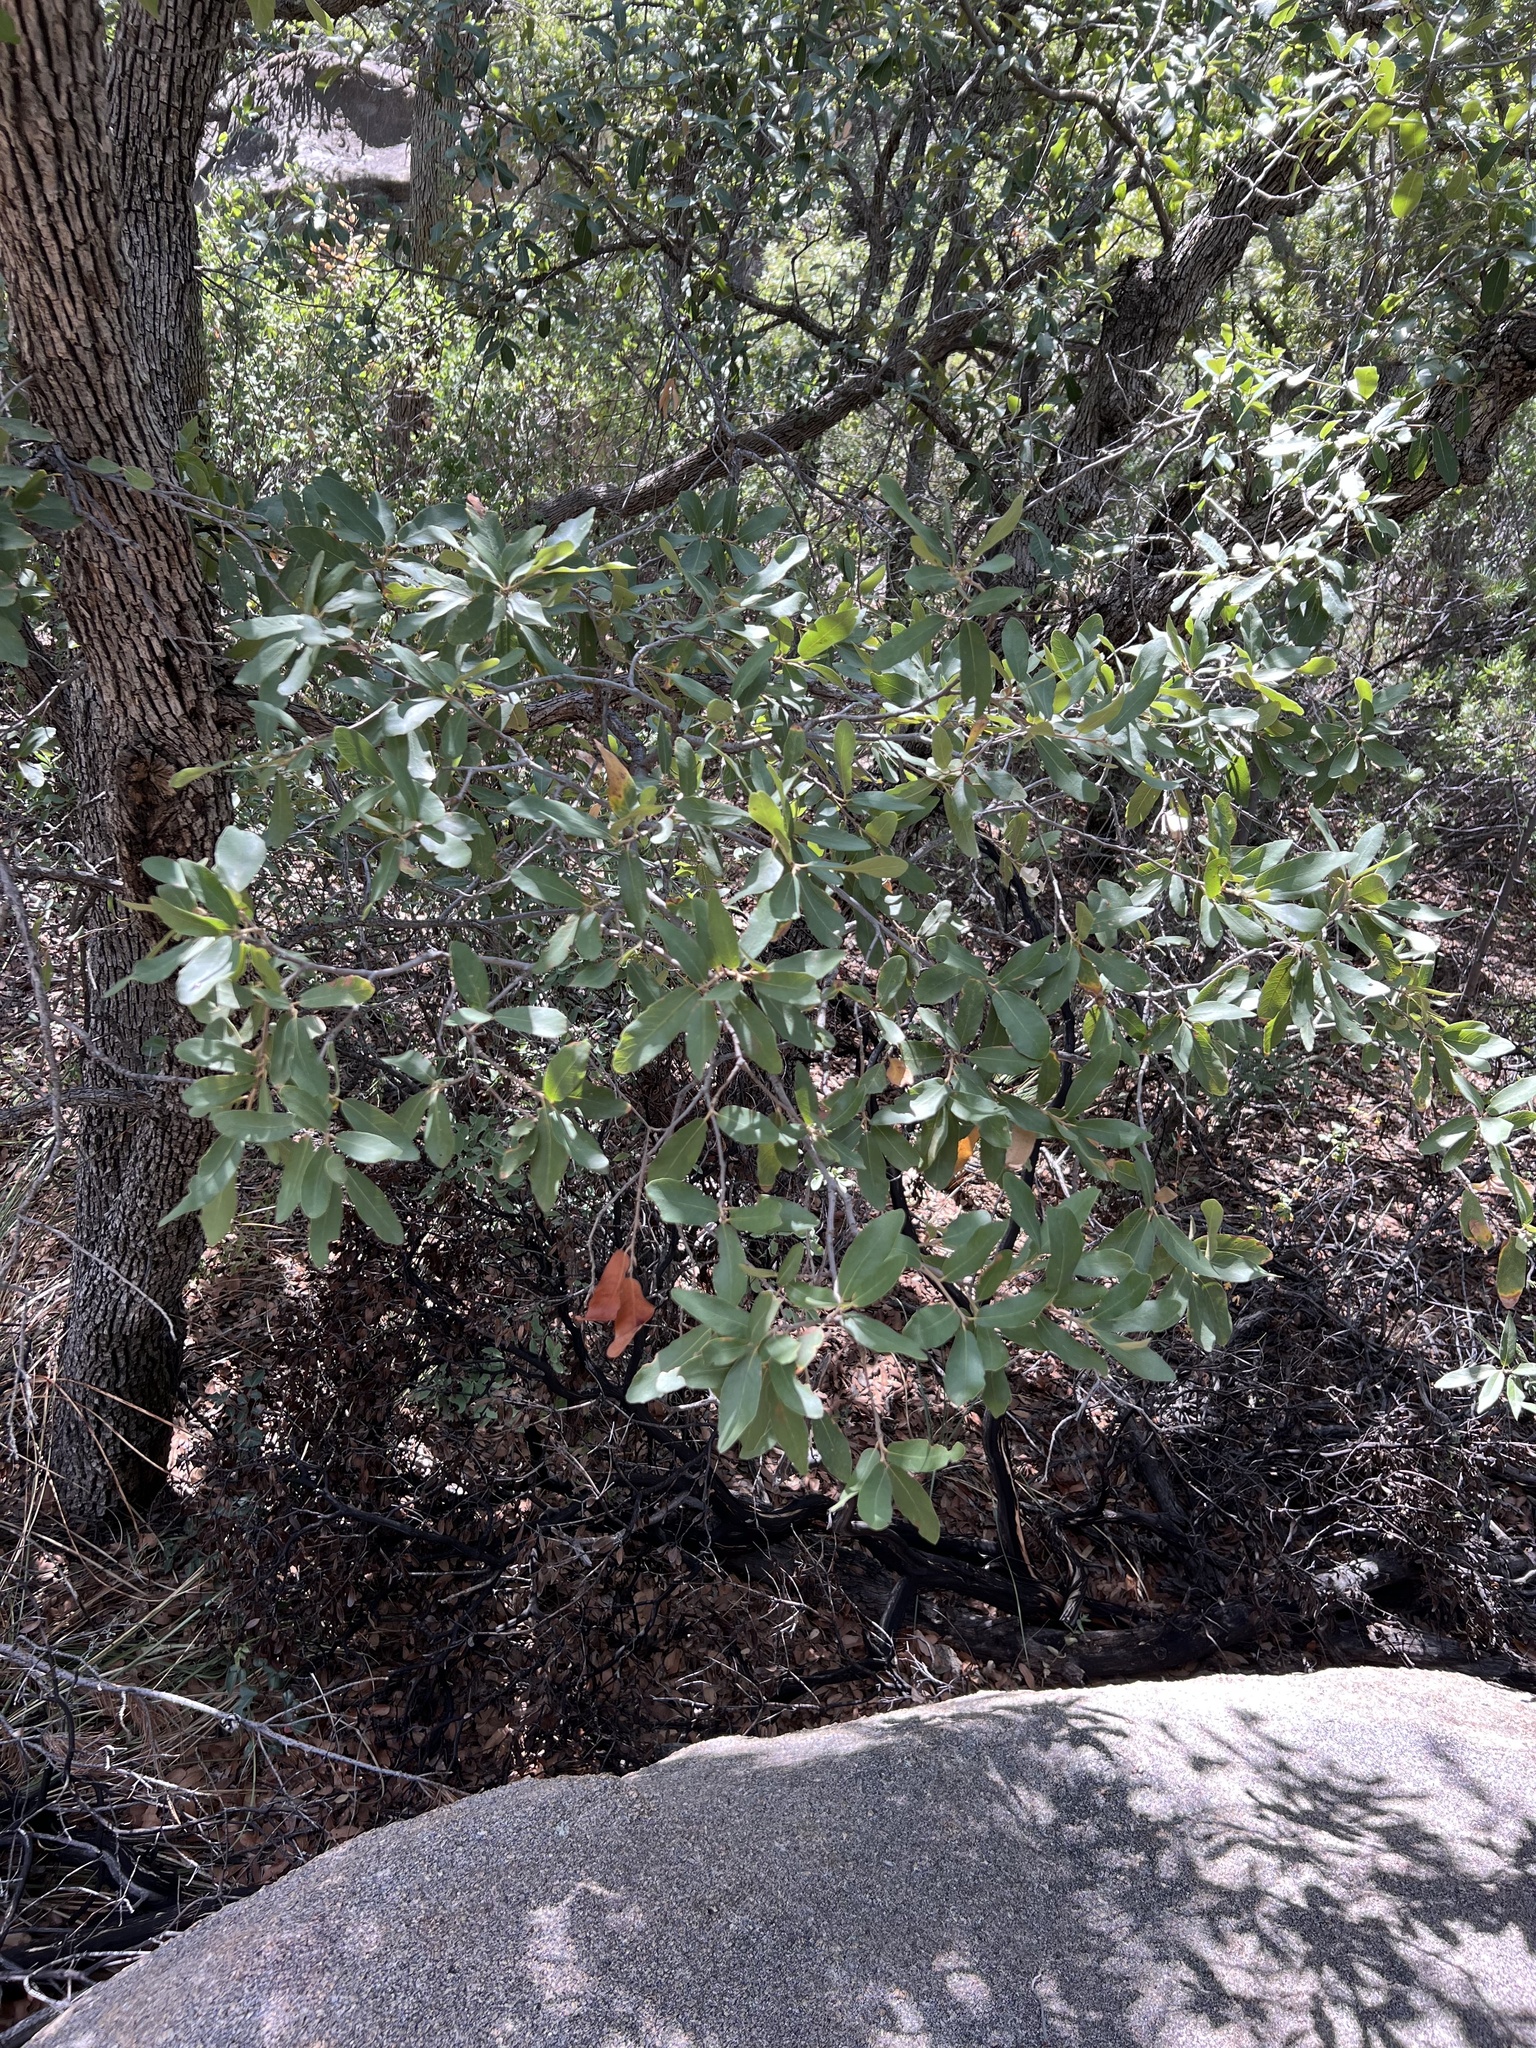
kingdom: Plantae
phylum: Tracheophyta
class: Magnoliopsida
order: Fagales
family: Fagaceae
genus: Quercus
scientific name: Quercus arizonica
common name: Arizona white oak
